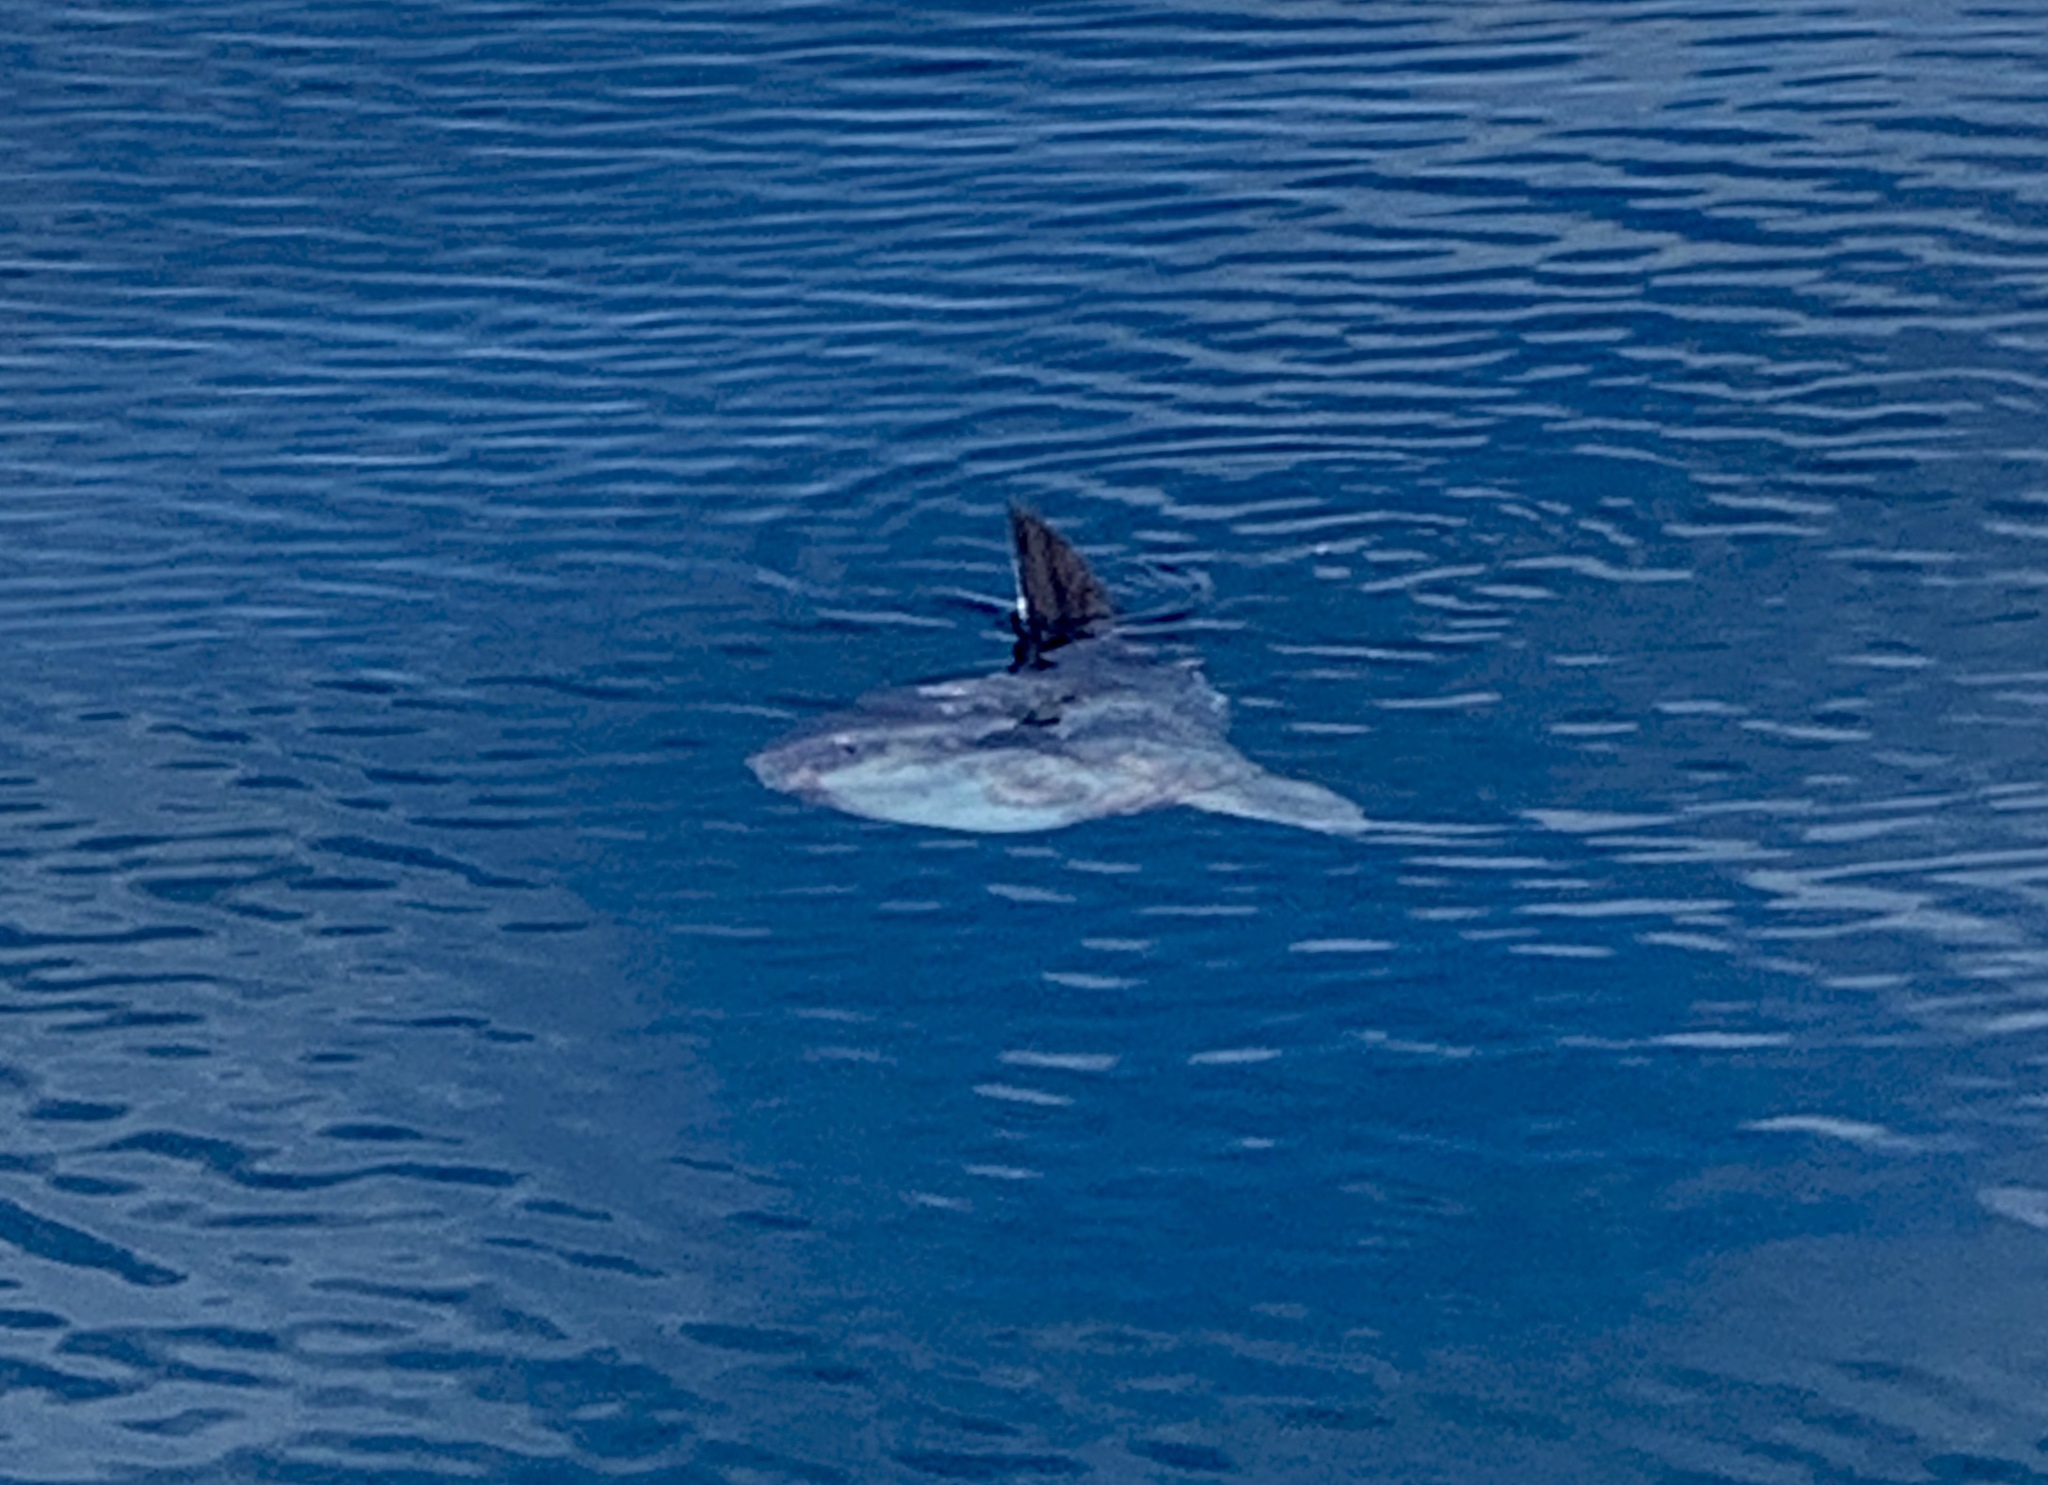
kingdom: Animalia
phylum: Chordata
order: Tetraodontiformes
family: Molidae
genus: Mola
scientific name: Mola mola
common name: Ocean sunfish
